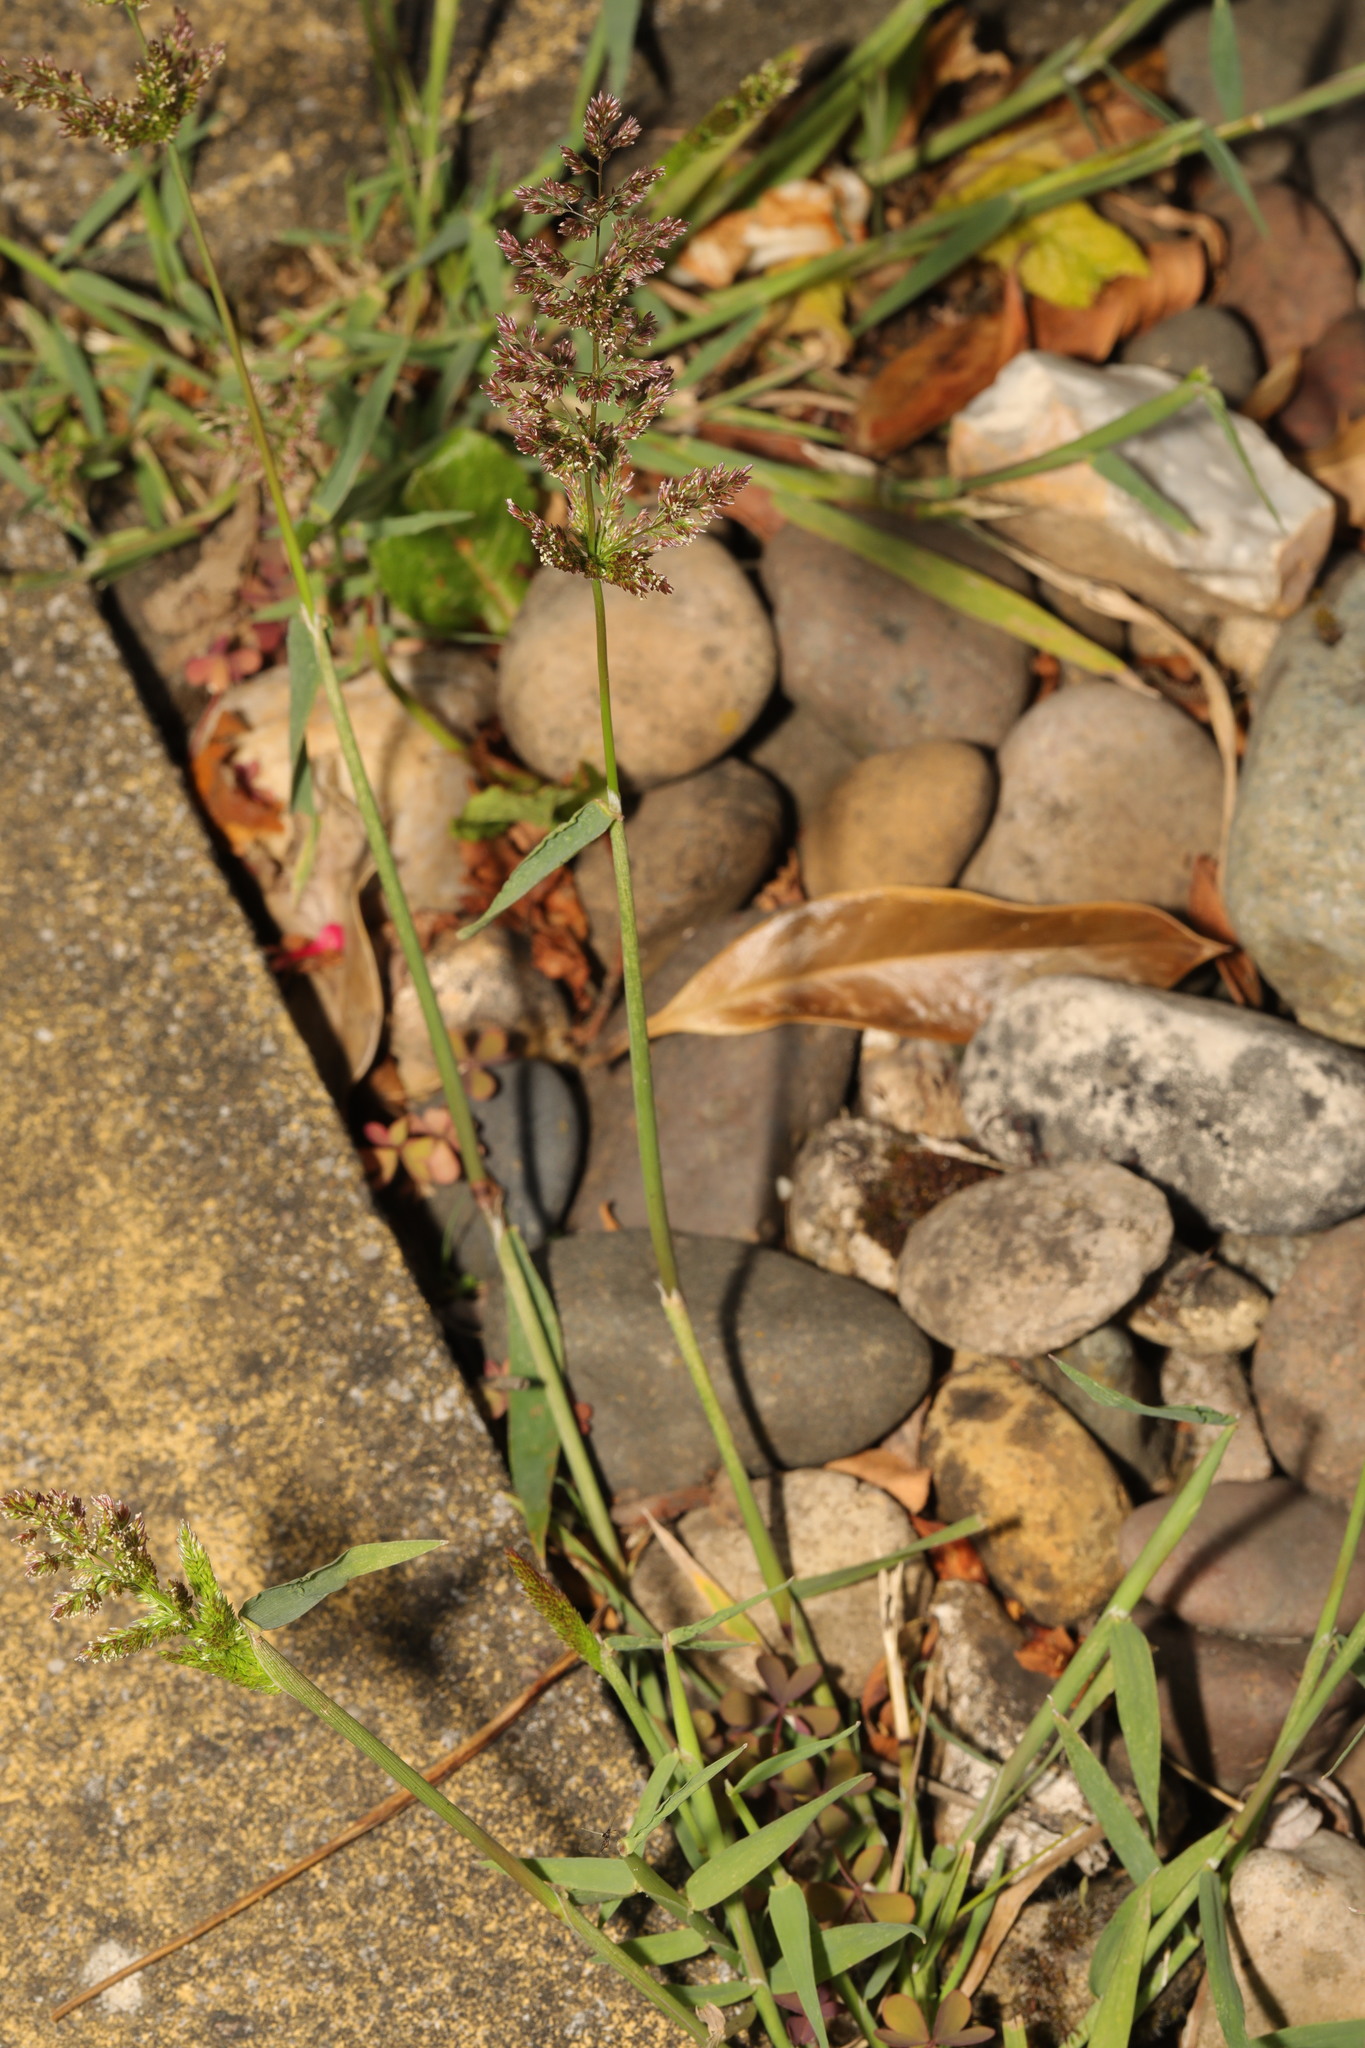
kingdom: Plantae
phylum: Tracheophyta
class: Liliopsida
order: Poales
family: Poaceae
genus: Polypogon
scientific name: Polypogon viridis
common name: Water bent
